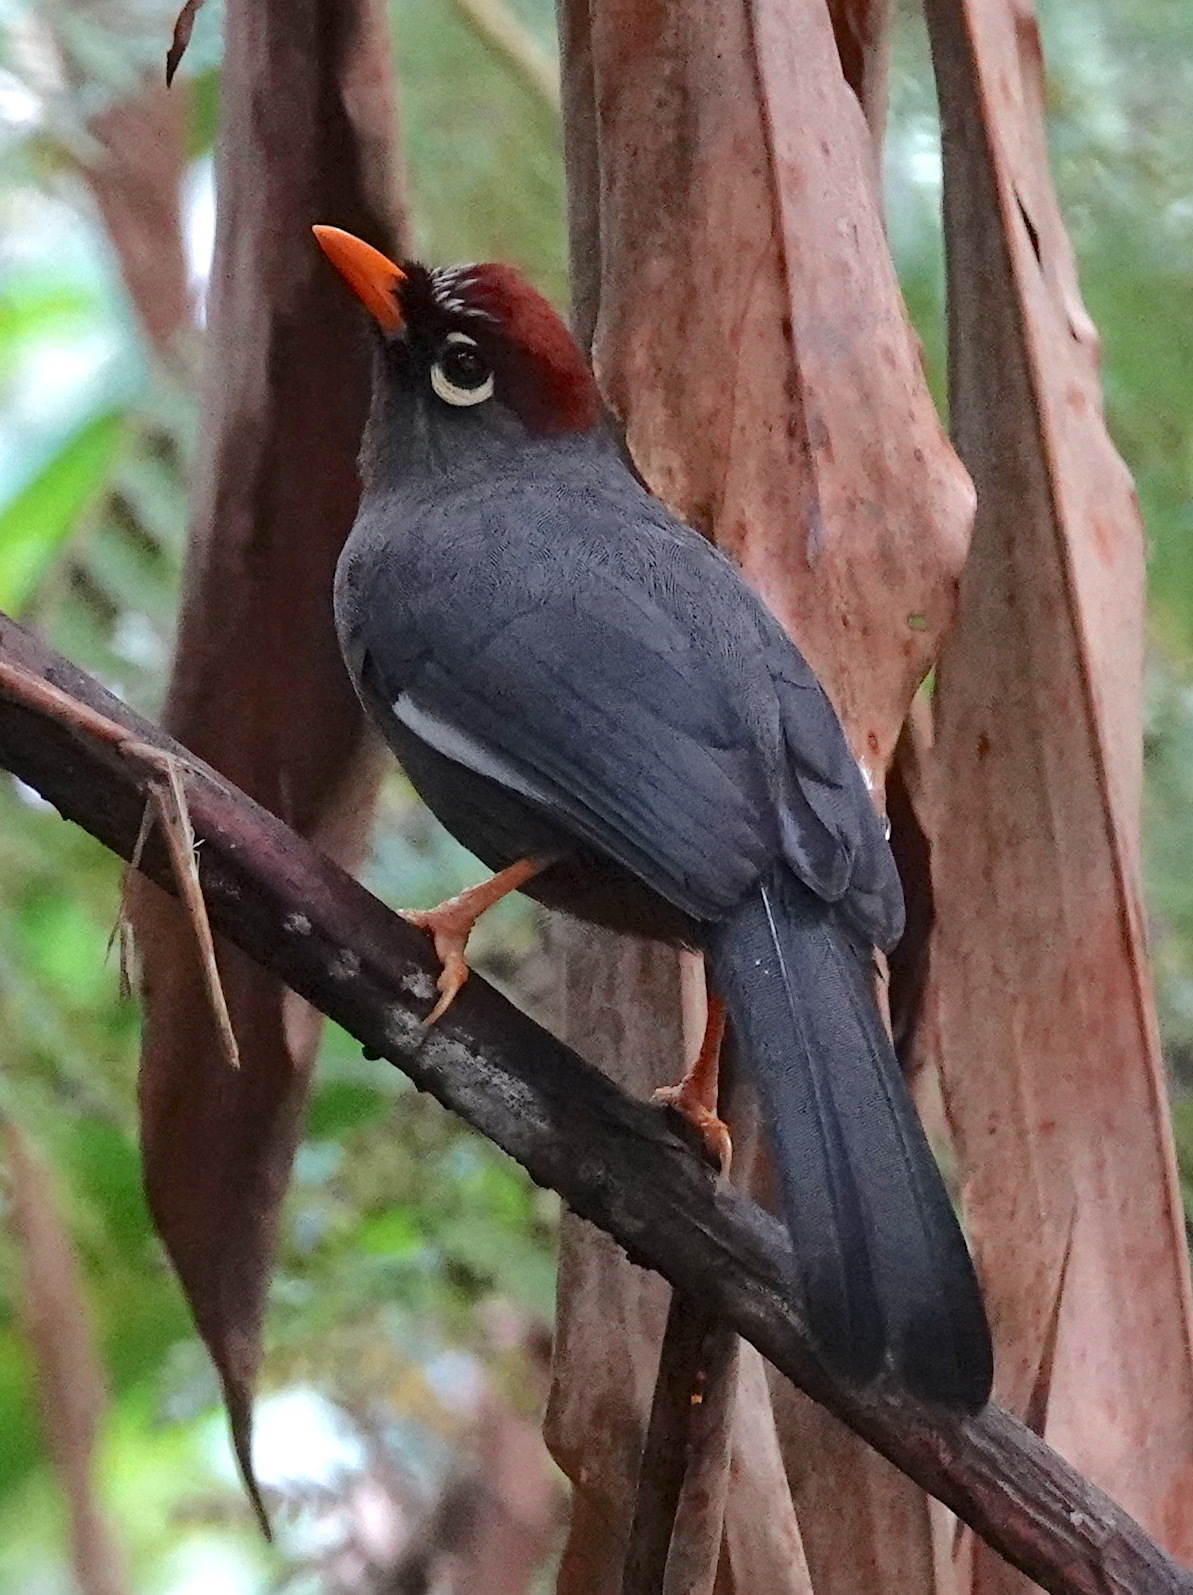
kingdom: Animalia
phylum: Chordata
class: Aves
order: Passeriformes
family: Leiothrichidae
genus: Garrulax
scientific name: Garrulax mitratus
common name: Chestnut-capped laughingthrush
